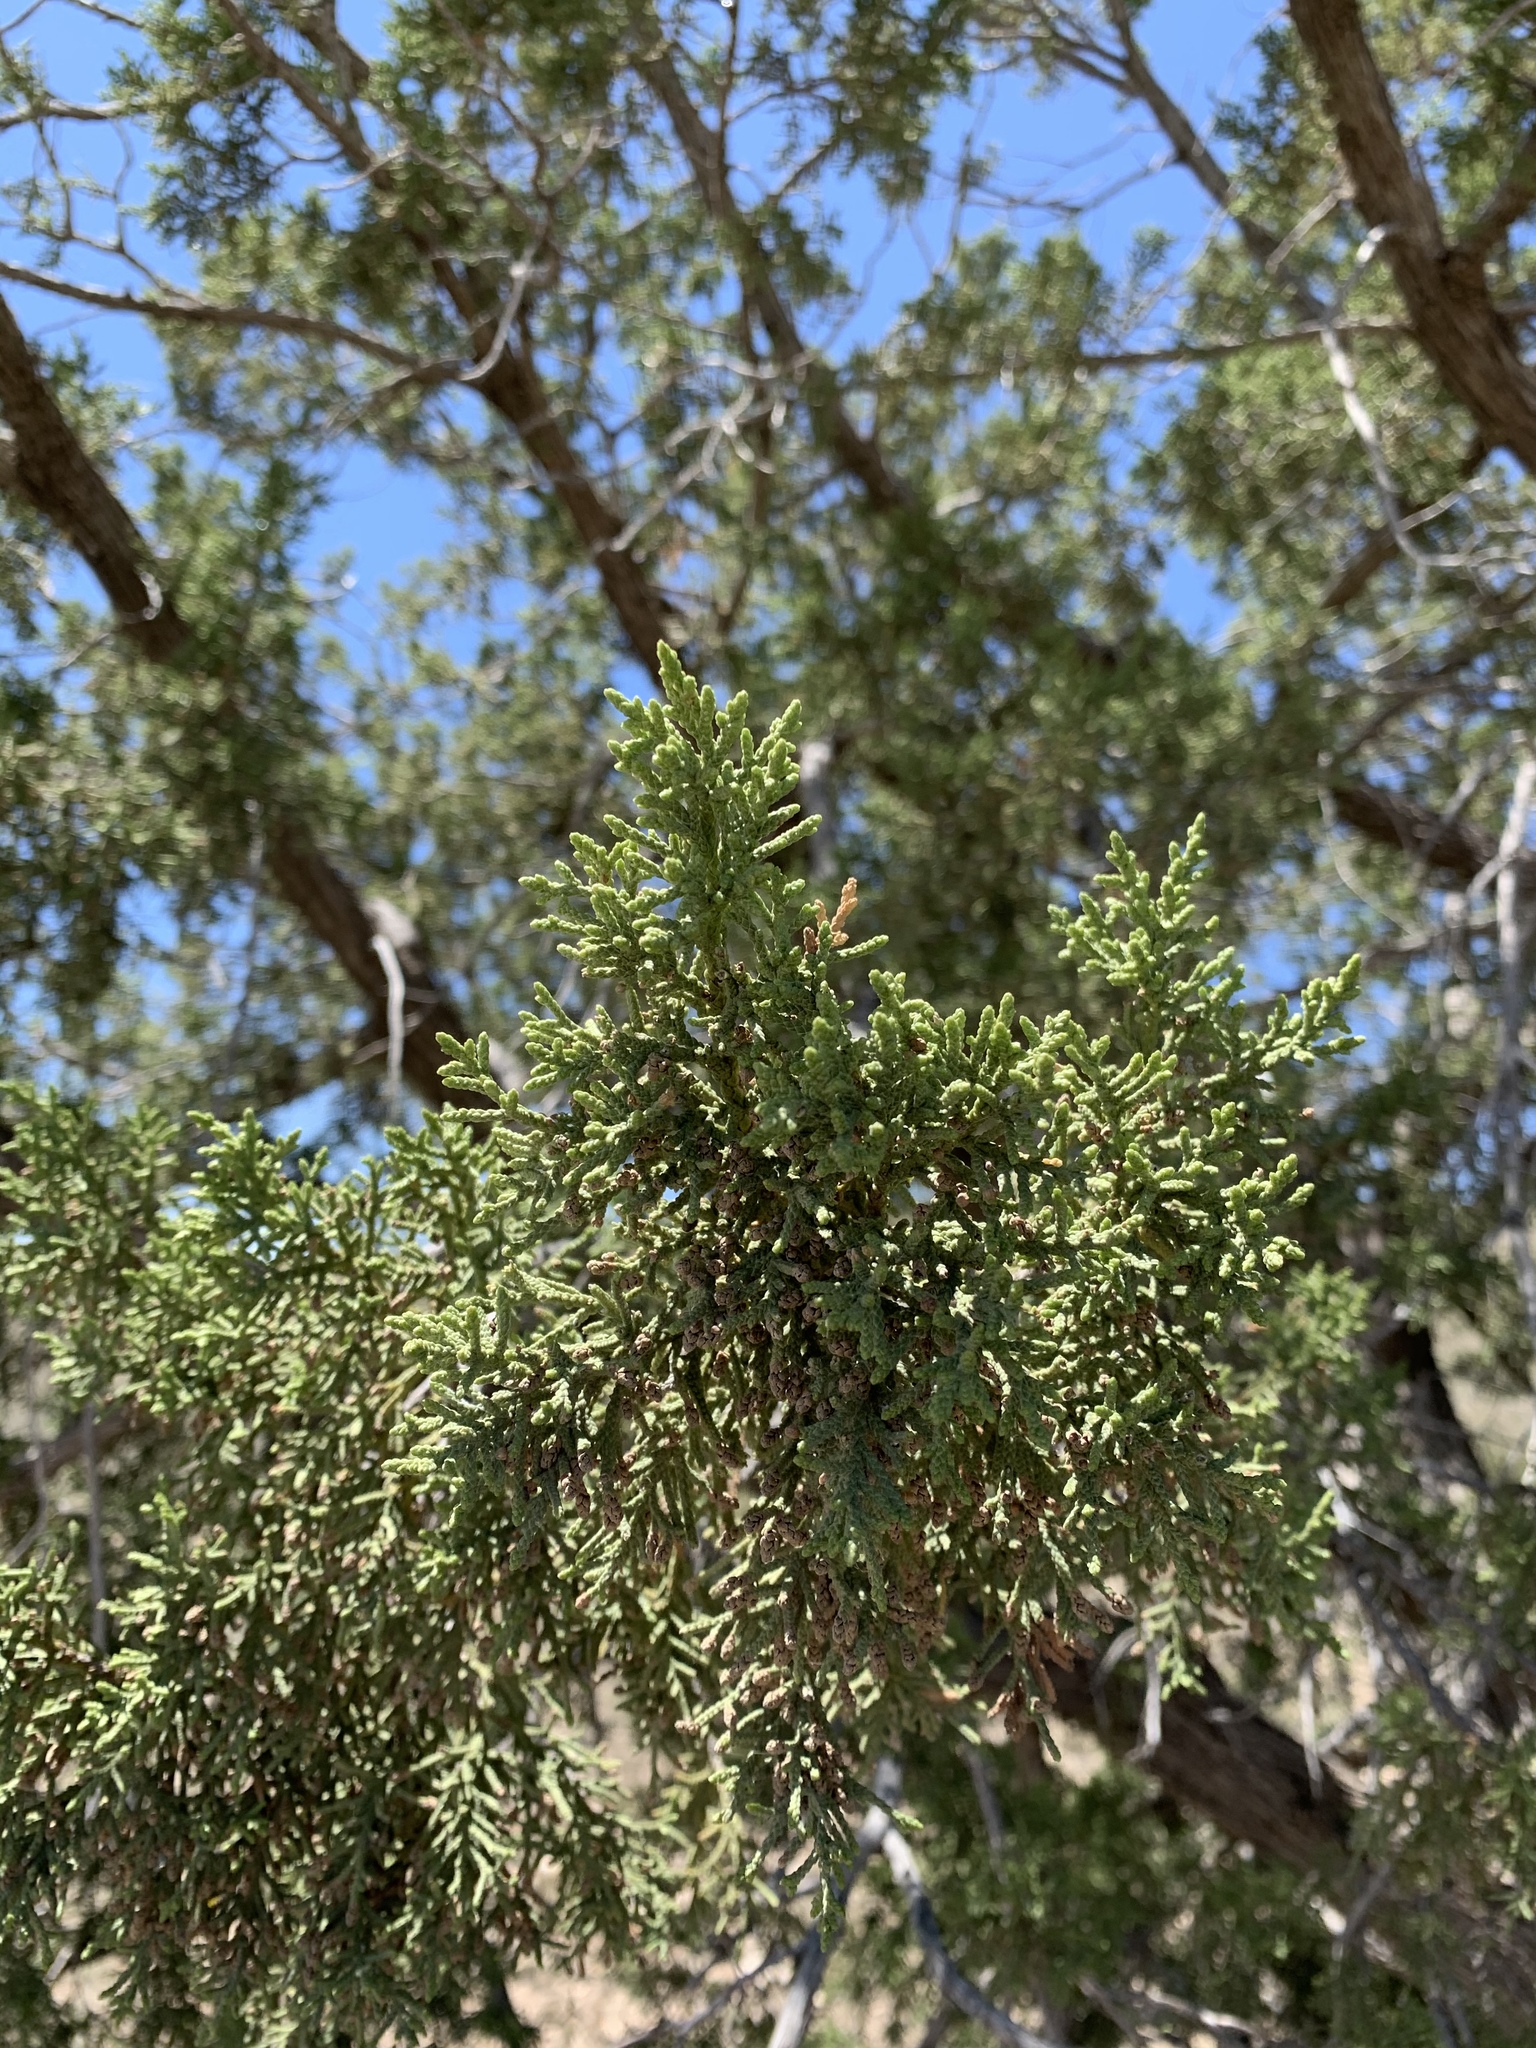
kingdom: Plantae
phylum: Tracheophyta
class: Pinopsida
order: Pinales
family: Cupressaceae
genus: Juniperus
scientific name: Juniperus monosperma
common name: One-seed juniper
